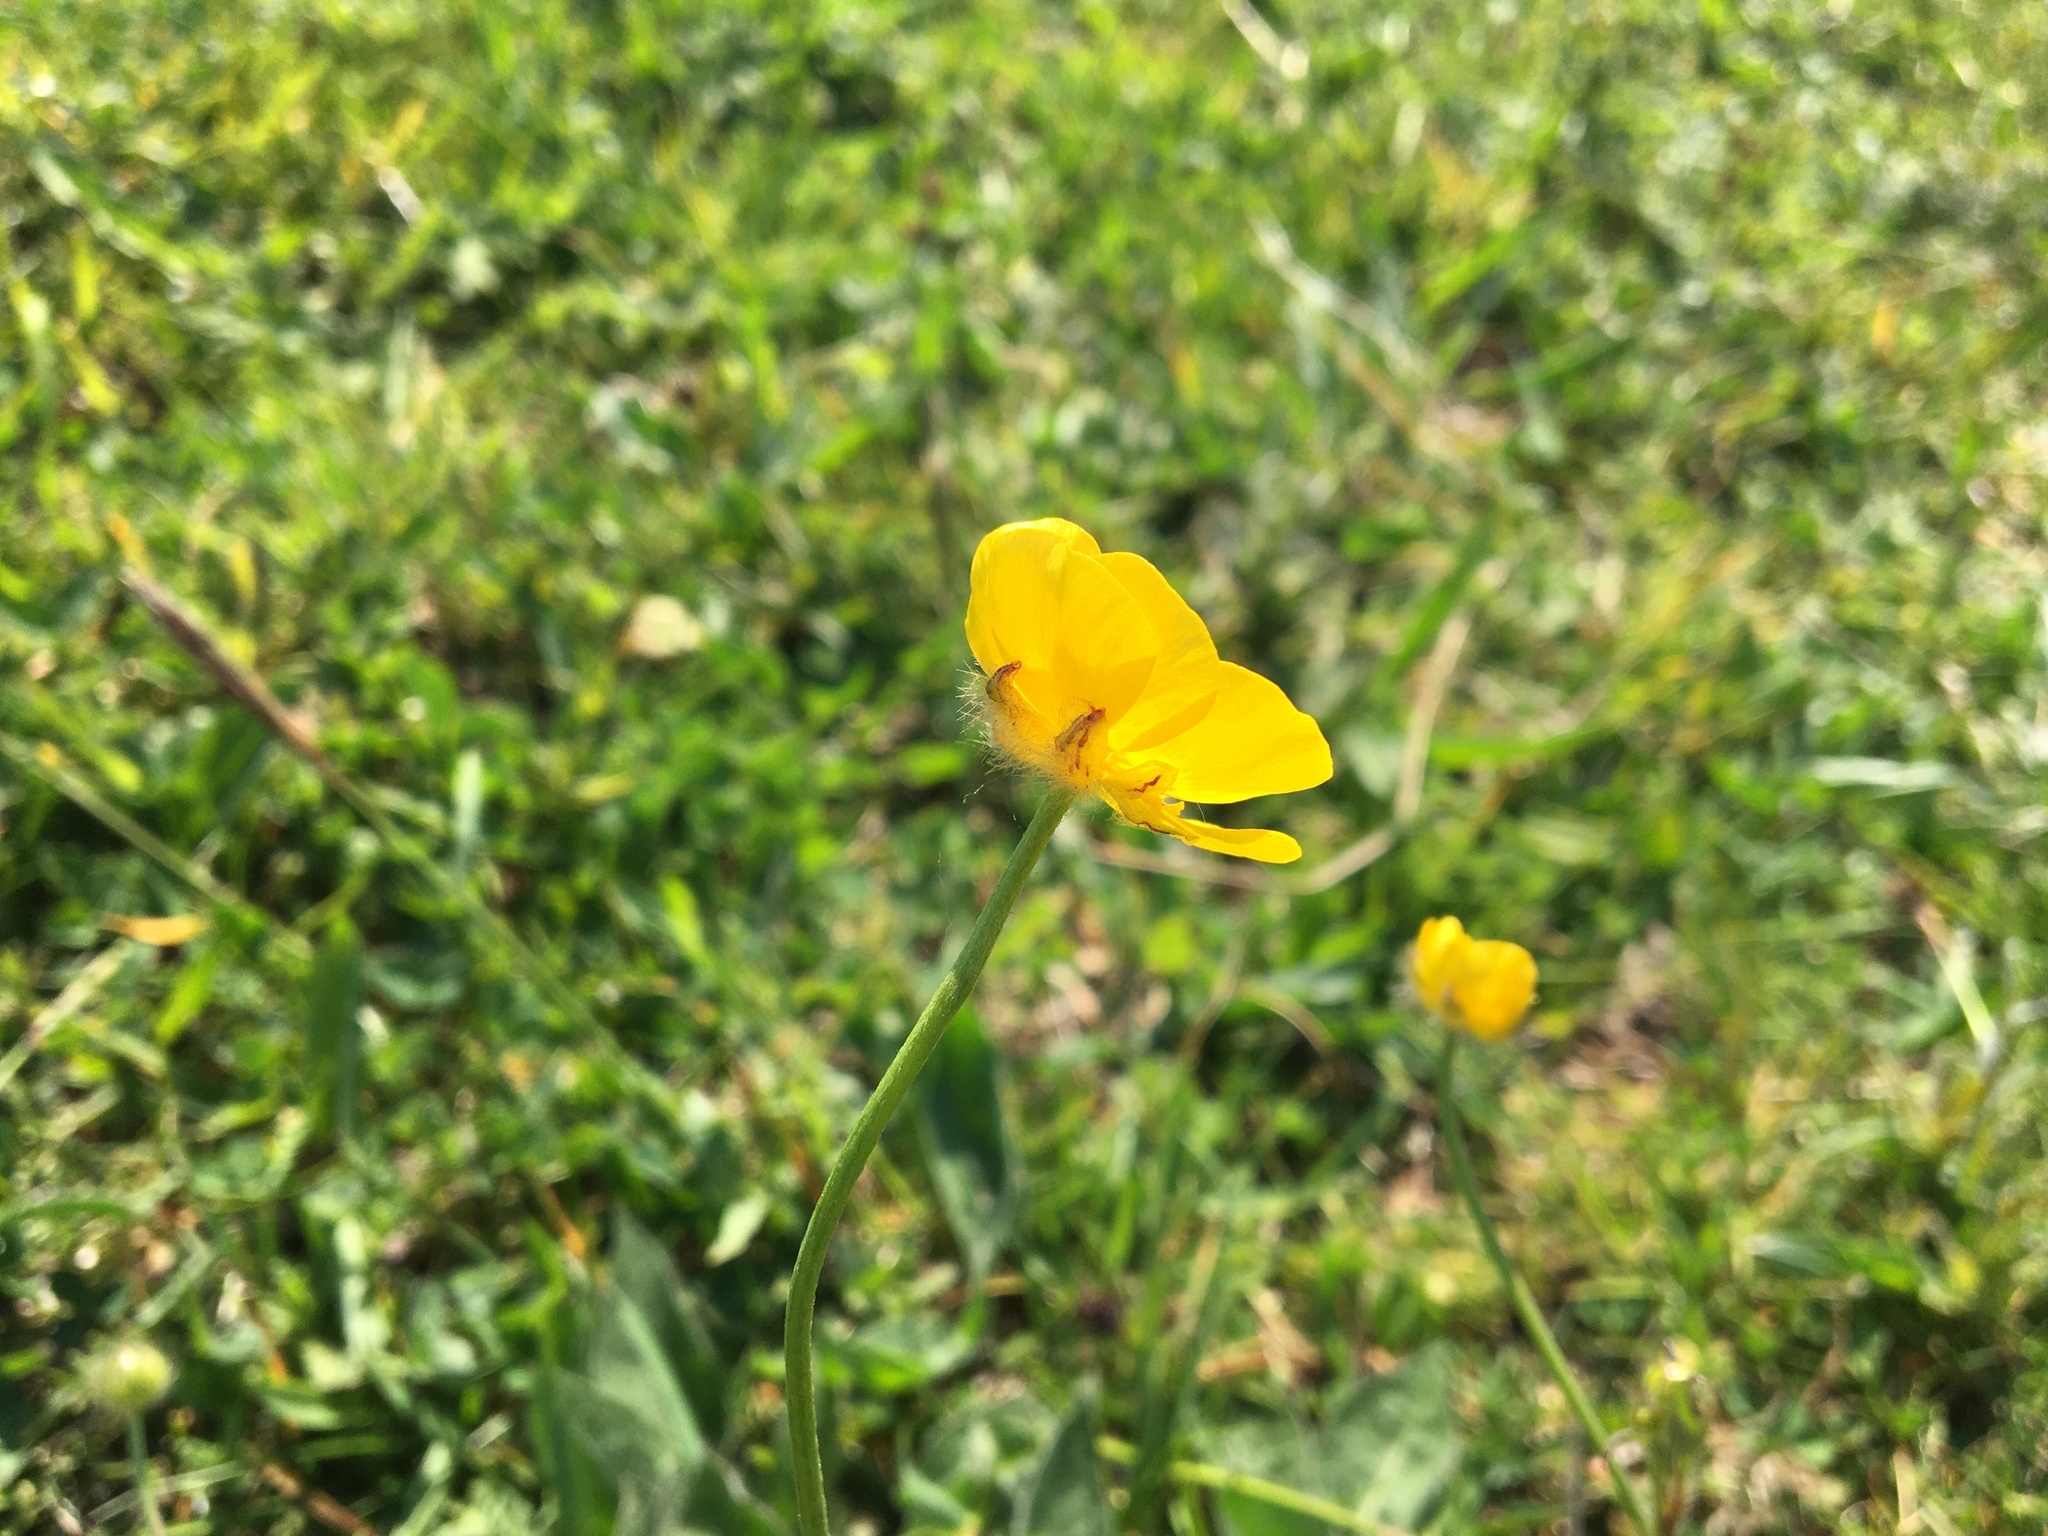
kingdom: Plantae
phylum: Tracheophyta
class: Magnoliopsida
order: Ranunculales
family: Ranunculaceae
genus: Ranunculus
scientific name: Ranunculus acris
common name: Meadow buttercup
